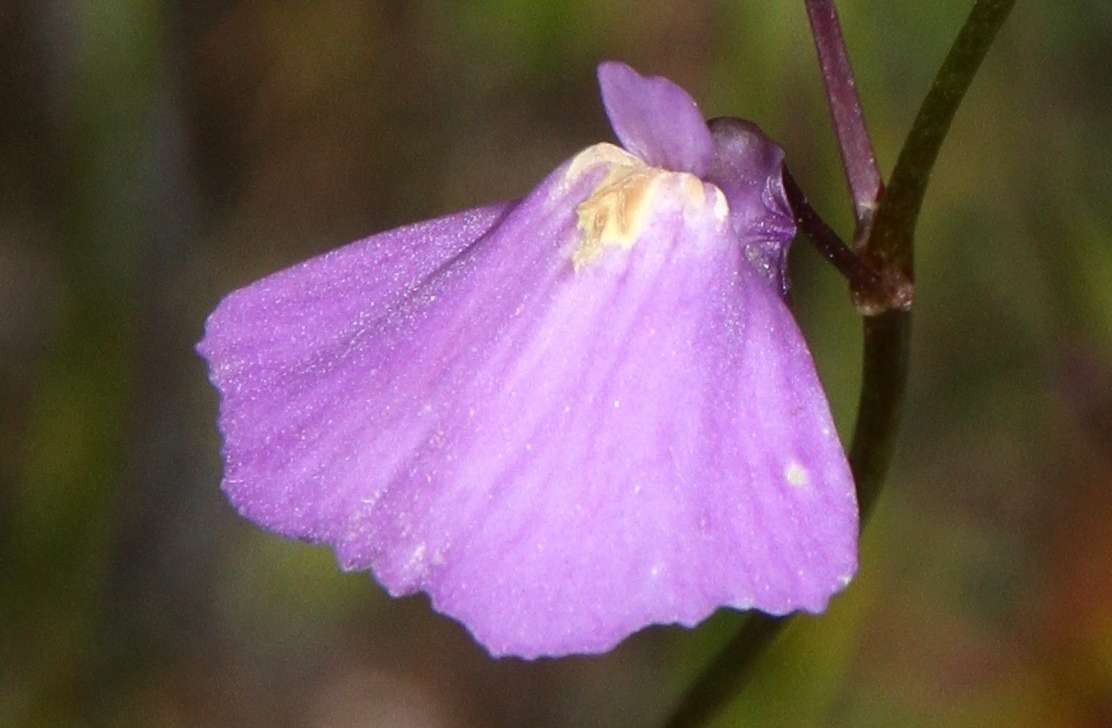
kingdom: Plantae
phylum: Tracheophyta
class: Magnoliopsida
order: Lamiales
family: Lentibulariaceae
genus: Utricularia
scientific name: Utricularia dichotoma
